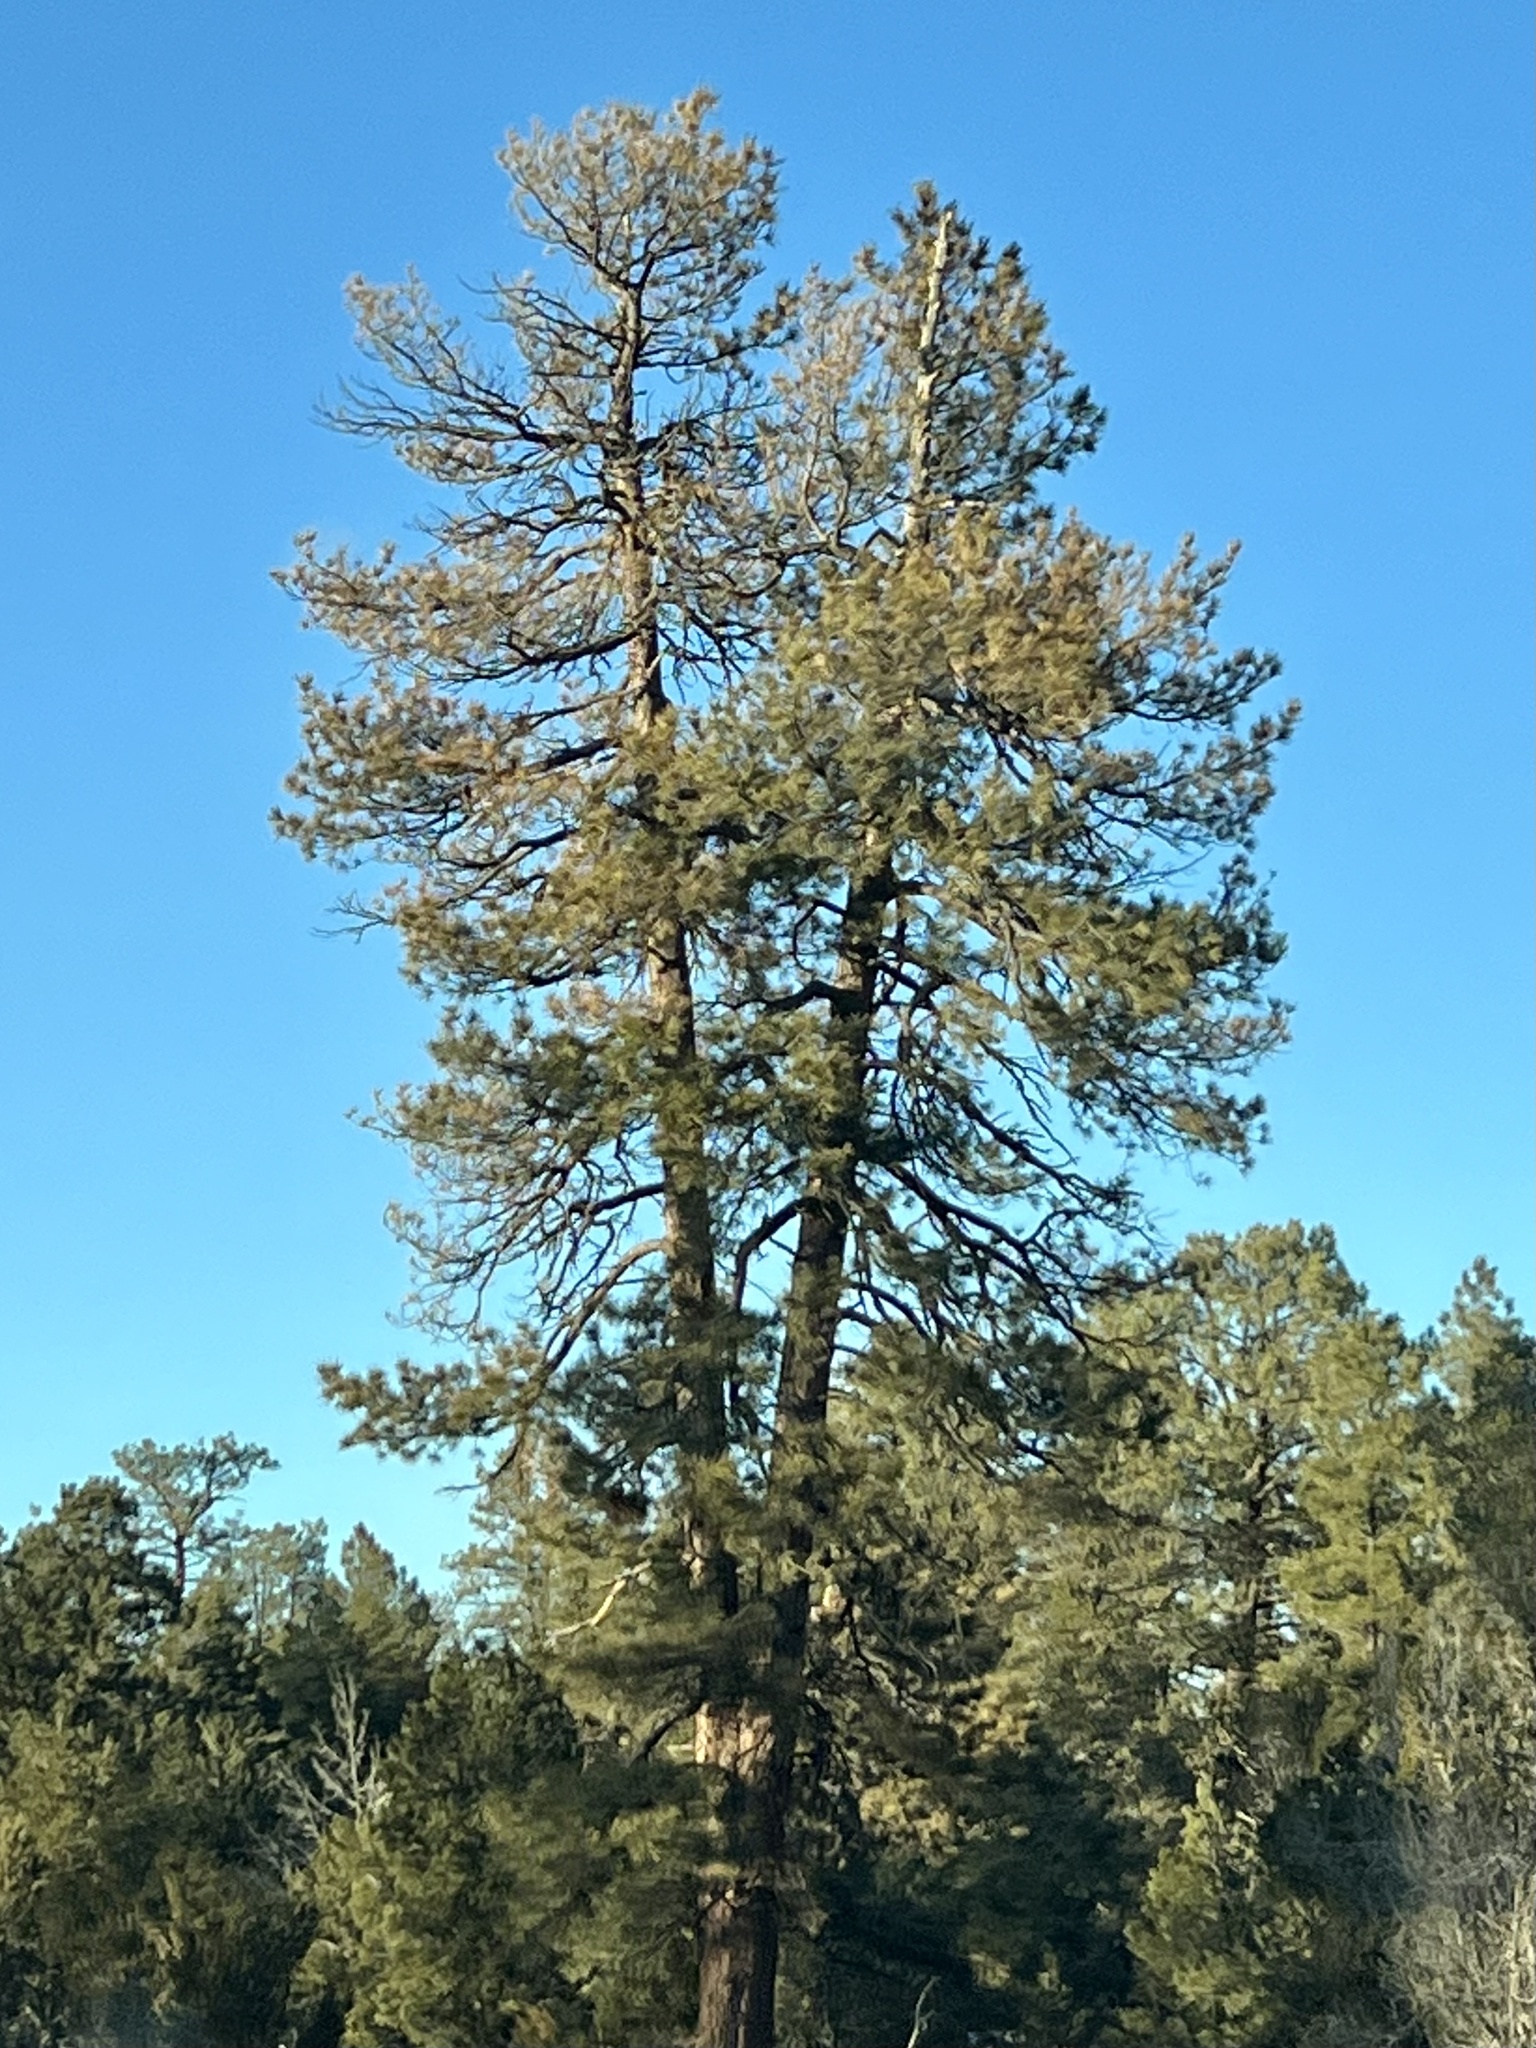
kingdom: Plantae
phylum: Tracheophyta
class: Pinopsida
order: Pinales
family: Pinaceae
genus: Pinus
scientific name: Pinus ponderosa
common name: Western yellow-pine
